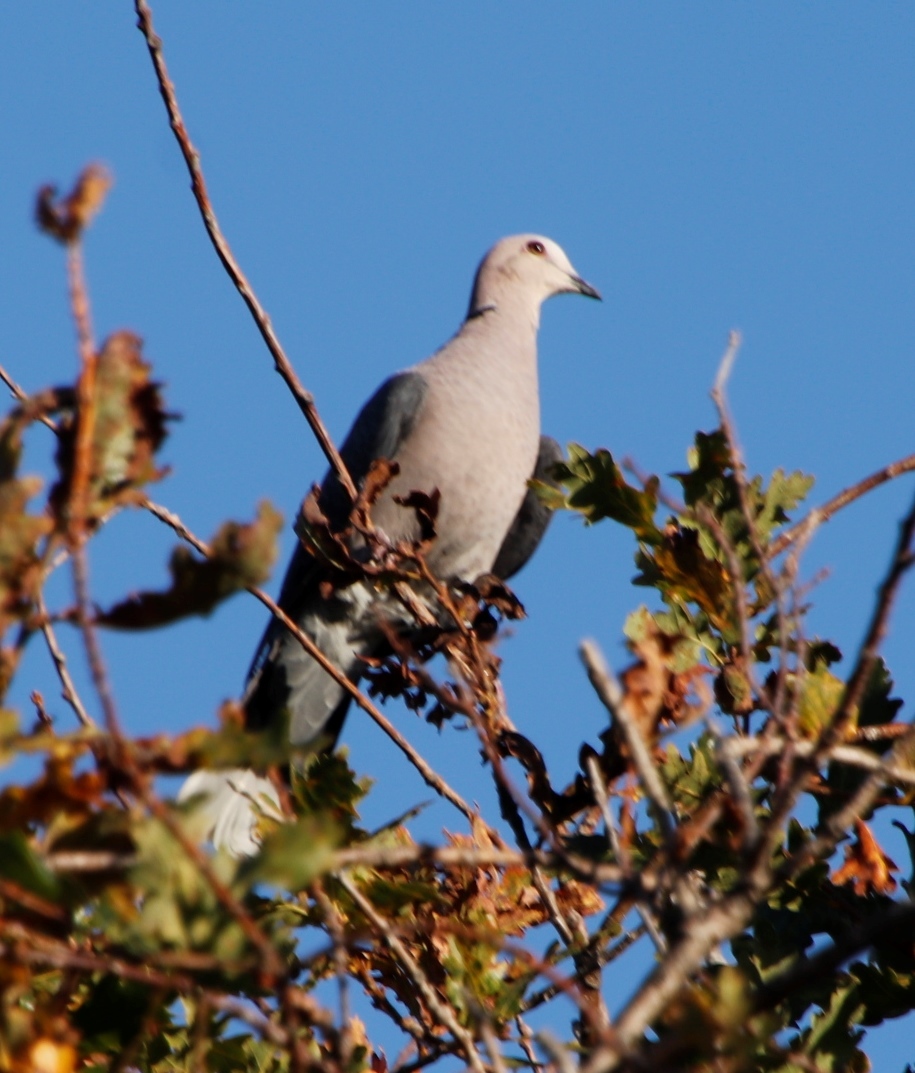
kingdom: Animalia
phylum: Chordata
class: Aves
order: Columbiformes
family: Columbidae
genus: Streptopelia
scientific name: Streptopelia semitorquata
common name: Red-eyed dove
